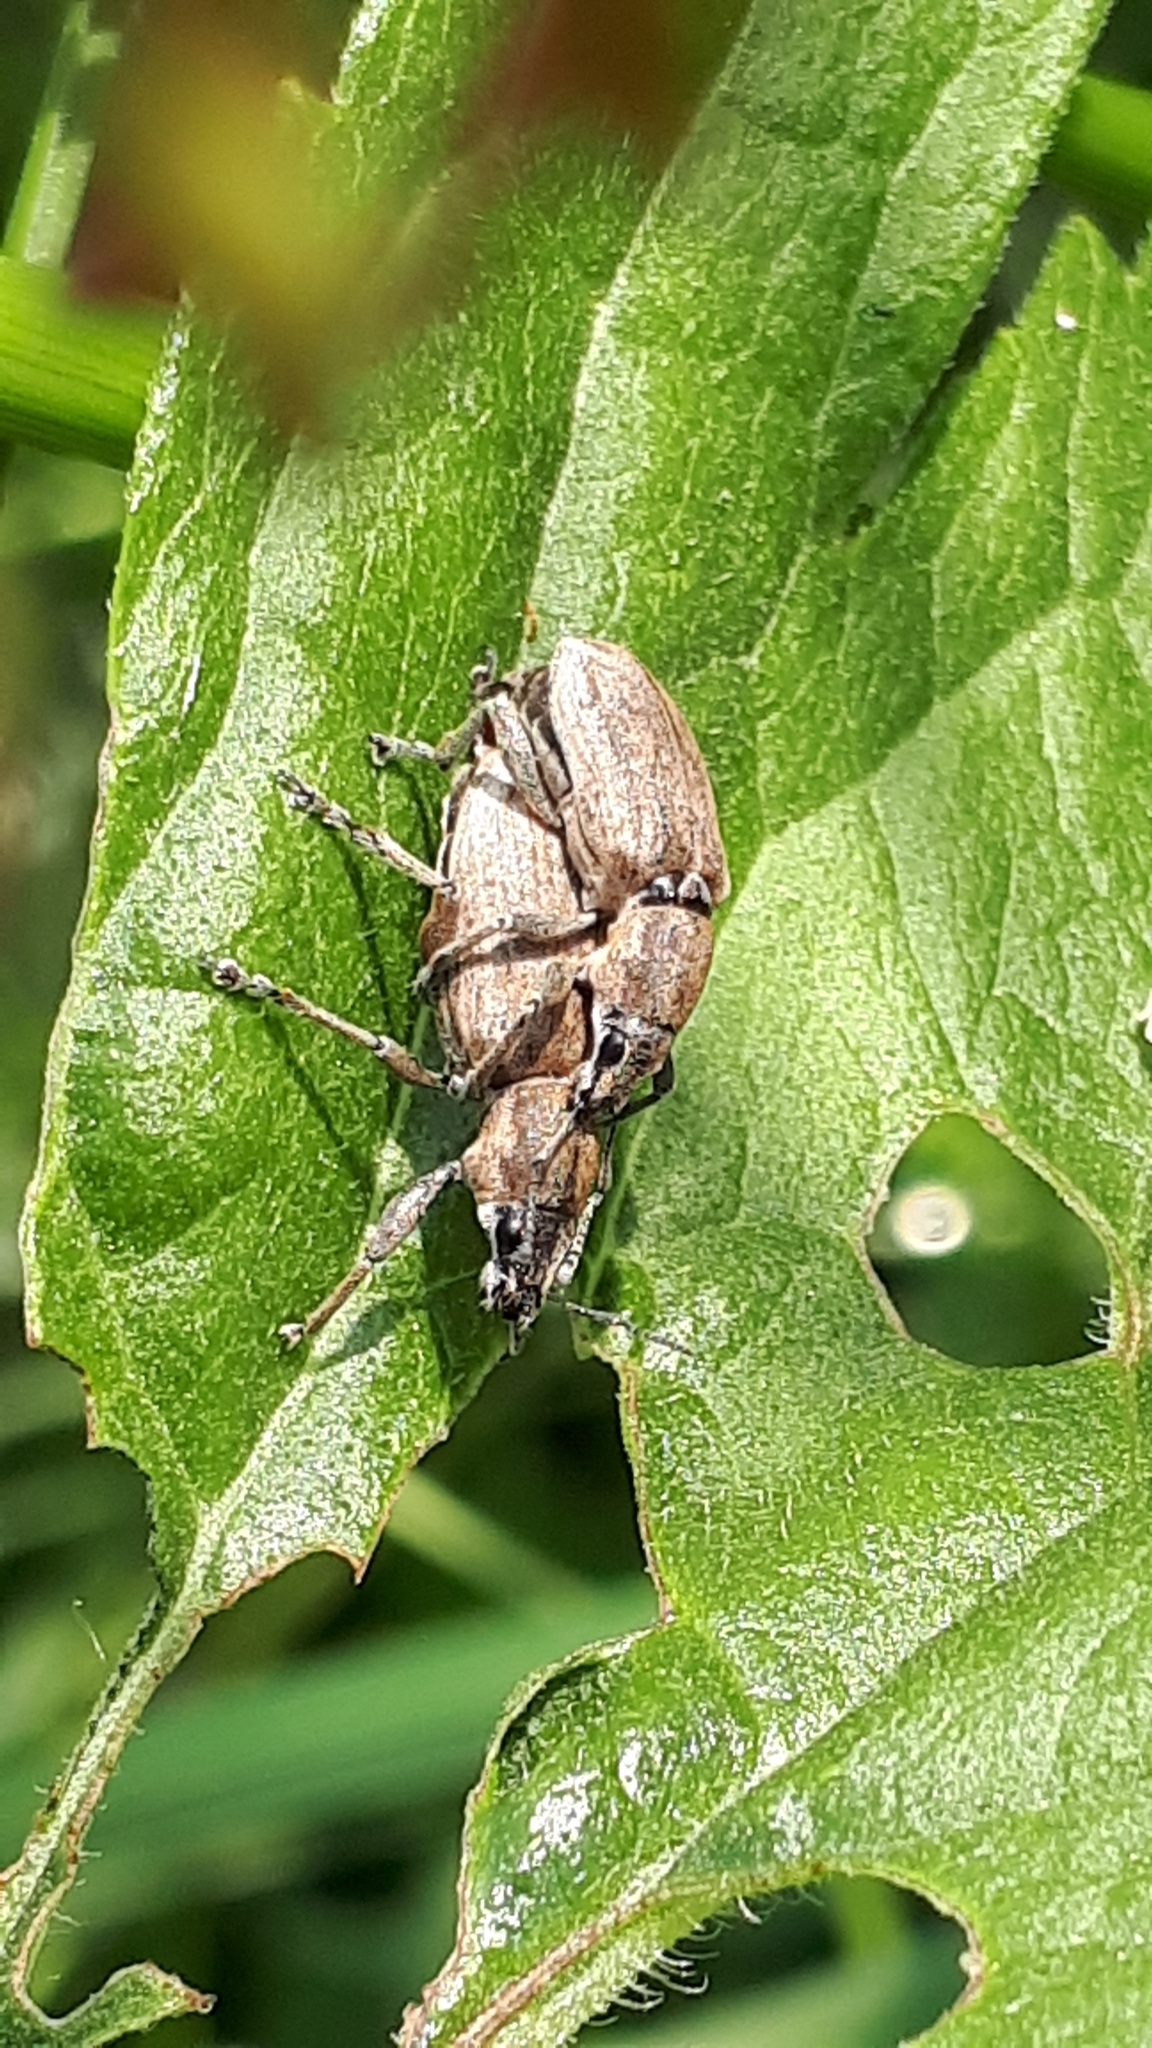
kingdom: Animalia
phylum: Arthropoda
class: Insecta
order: Coleoptera
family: Curculionidae
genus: Tanymecus
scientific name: Tanymecus palliatus
